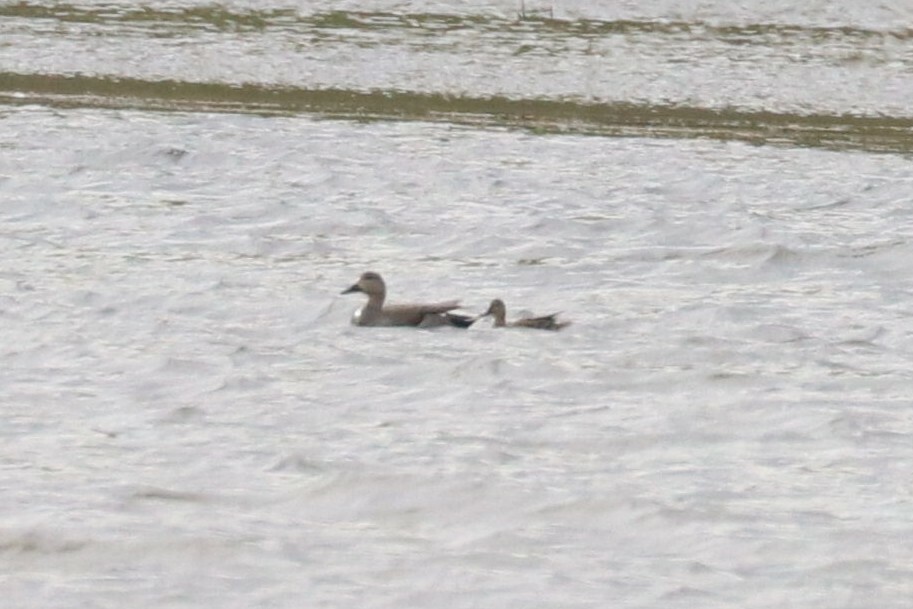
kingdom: Animalia
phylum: Chordata
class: Aves
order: Anseriformes
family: Anatidae
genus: Mareca
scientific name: Mareca strepera
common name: Gadwall
